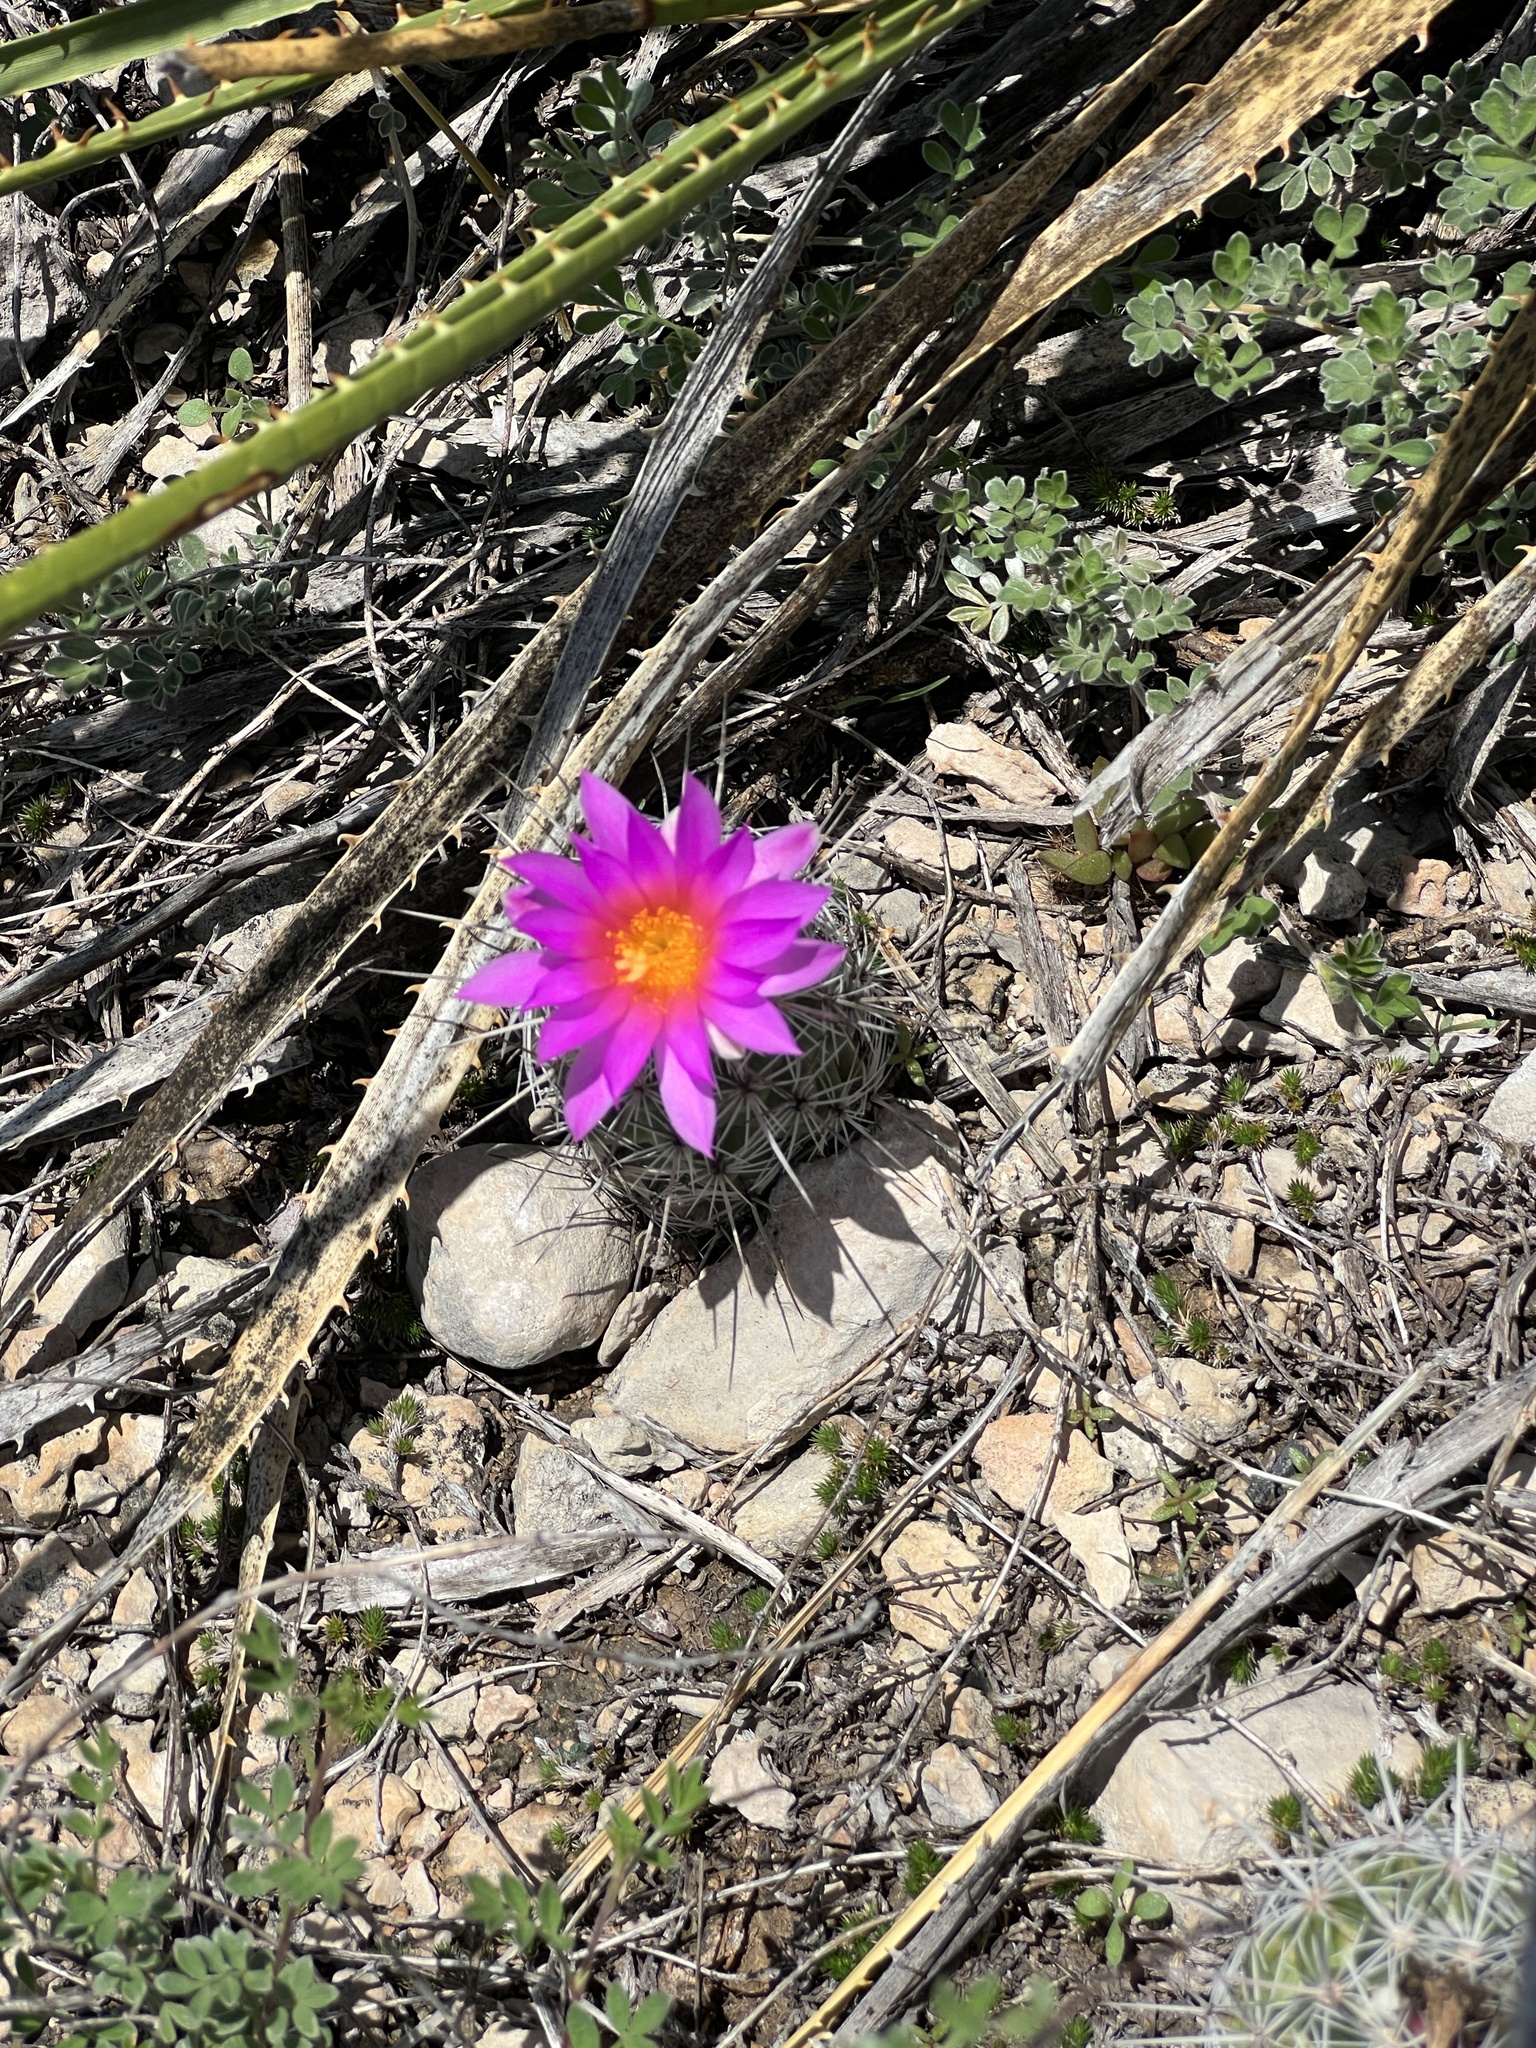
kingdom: Plantae
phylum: Tracheophyta
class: Magnoliopsida
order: Caryophyllales
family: Cactaceae
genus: Cochemiea
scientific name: Cochemiea conoidea
